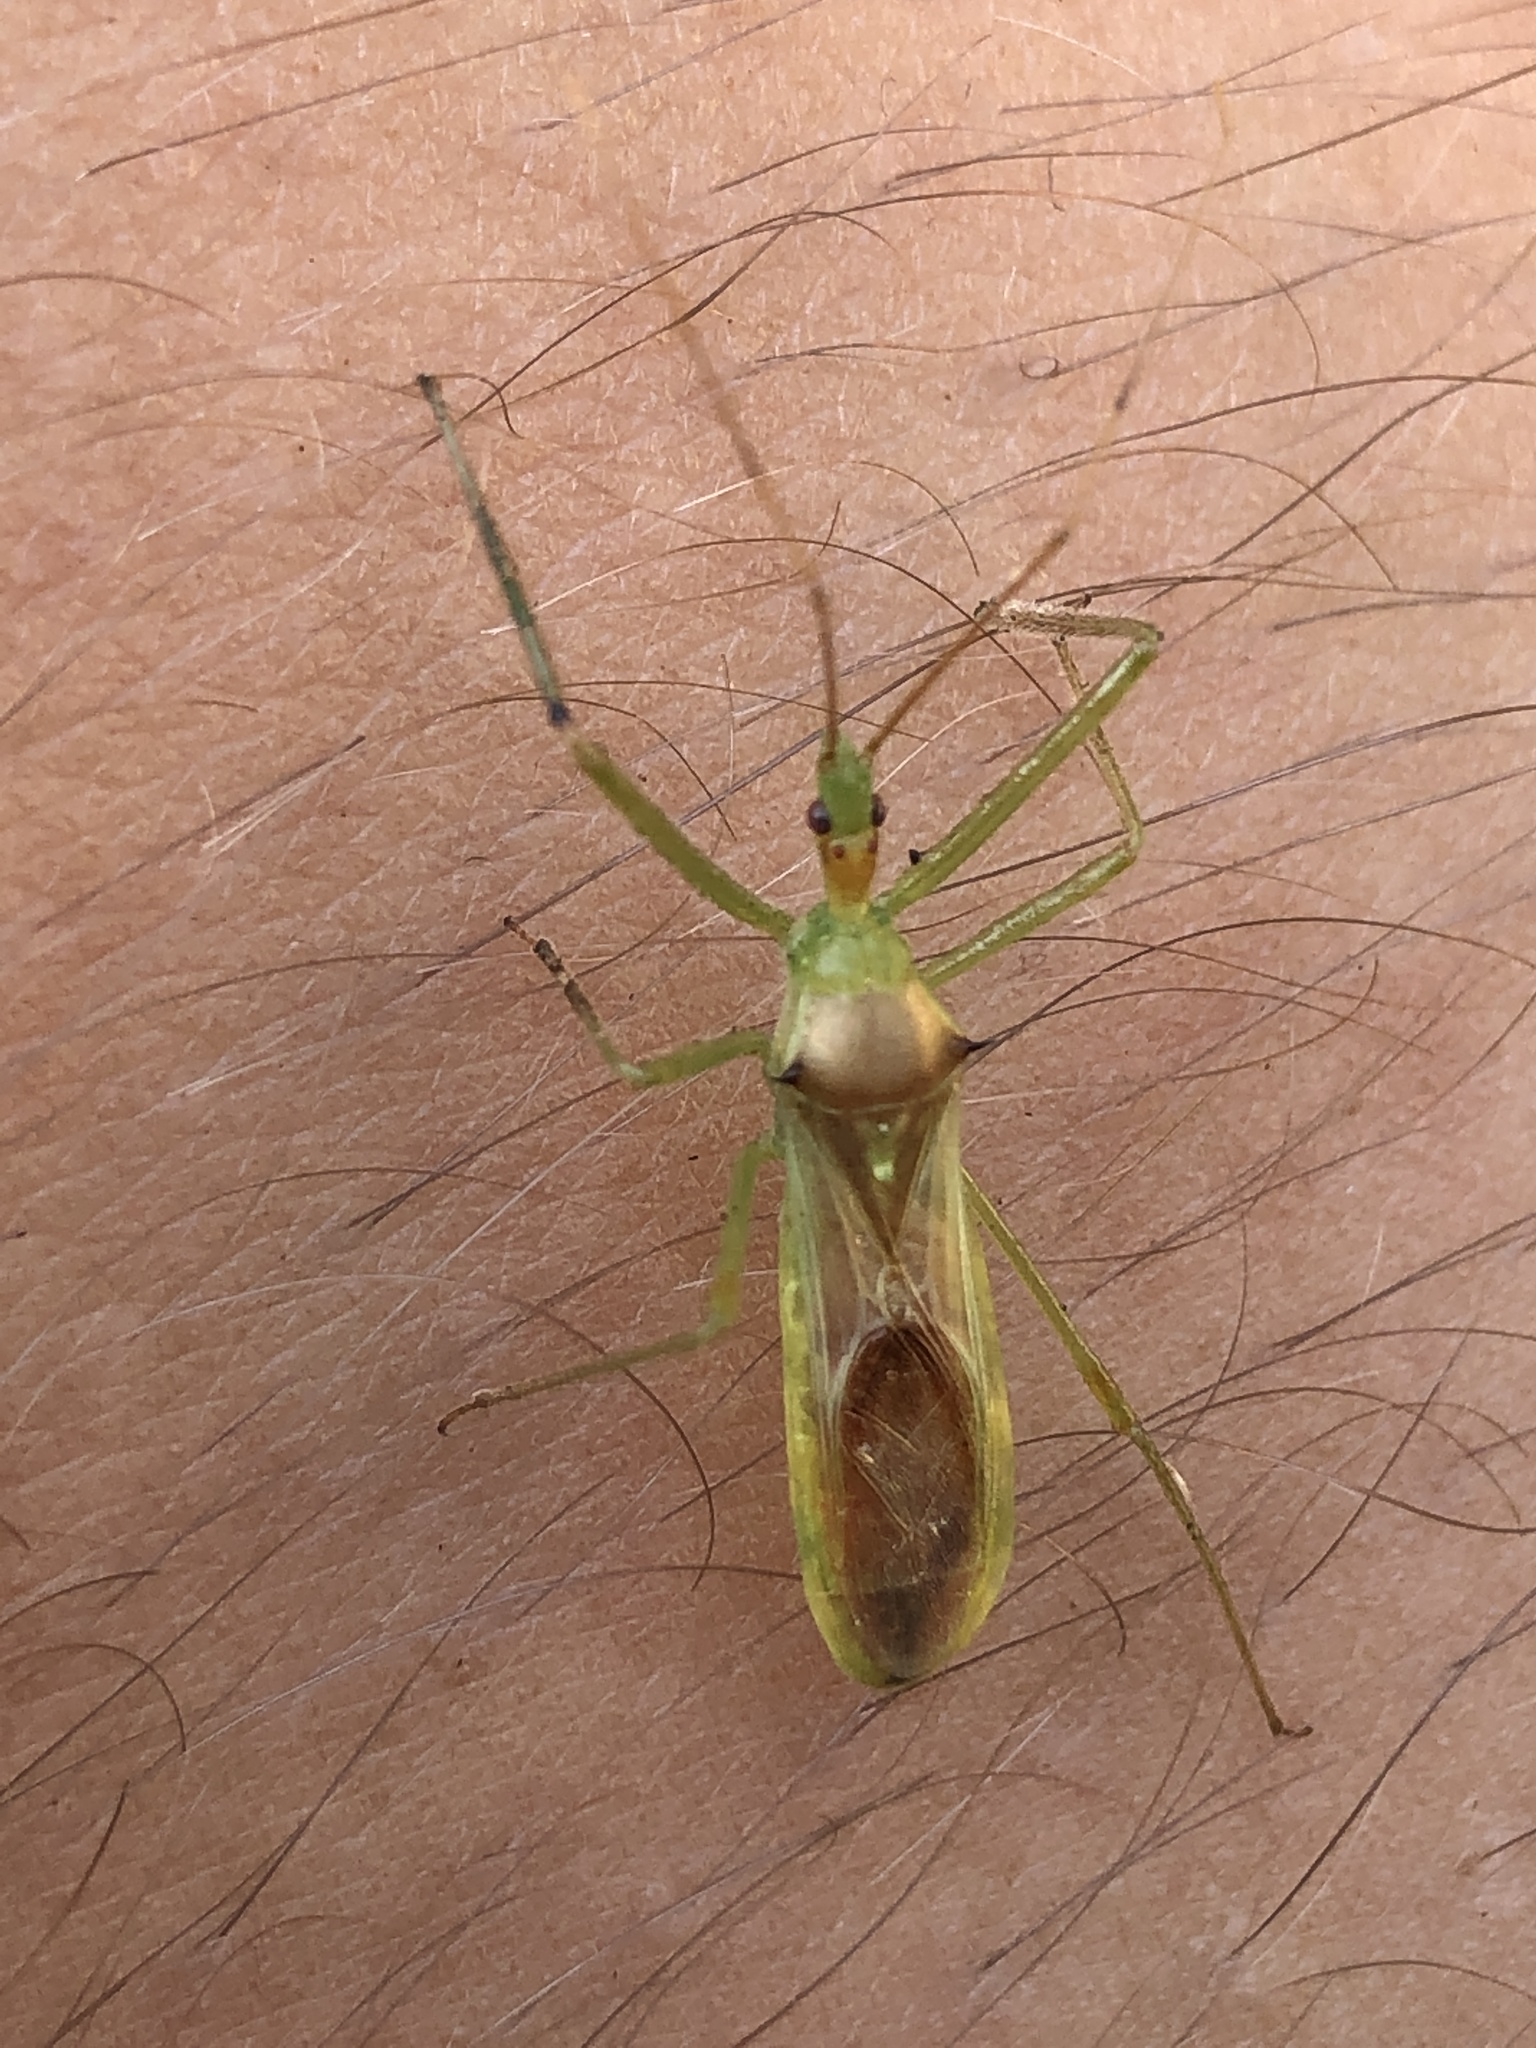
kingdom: Animalia
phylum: Arthropoda
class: Insecta
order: Hemiptera
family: Reduviidae
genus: Zelus
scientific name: Zelus luridus
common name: Pale green assassin bug
